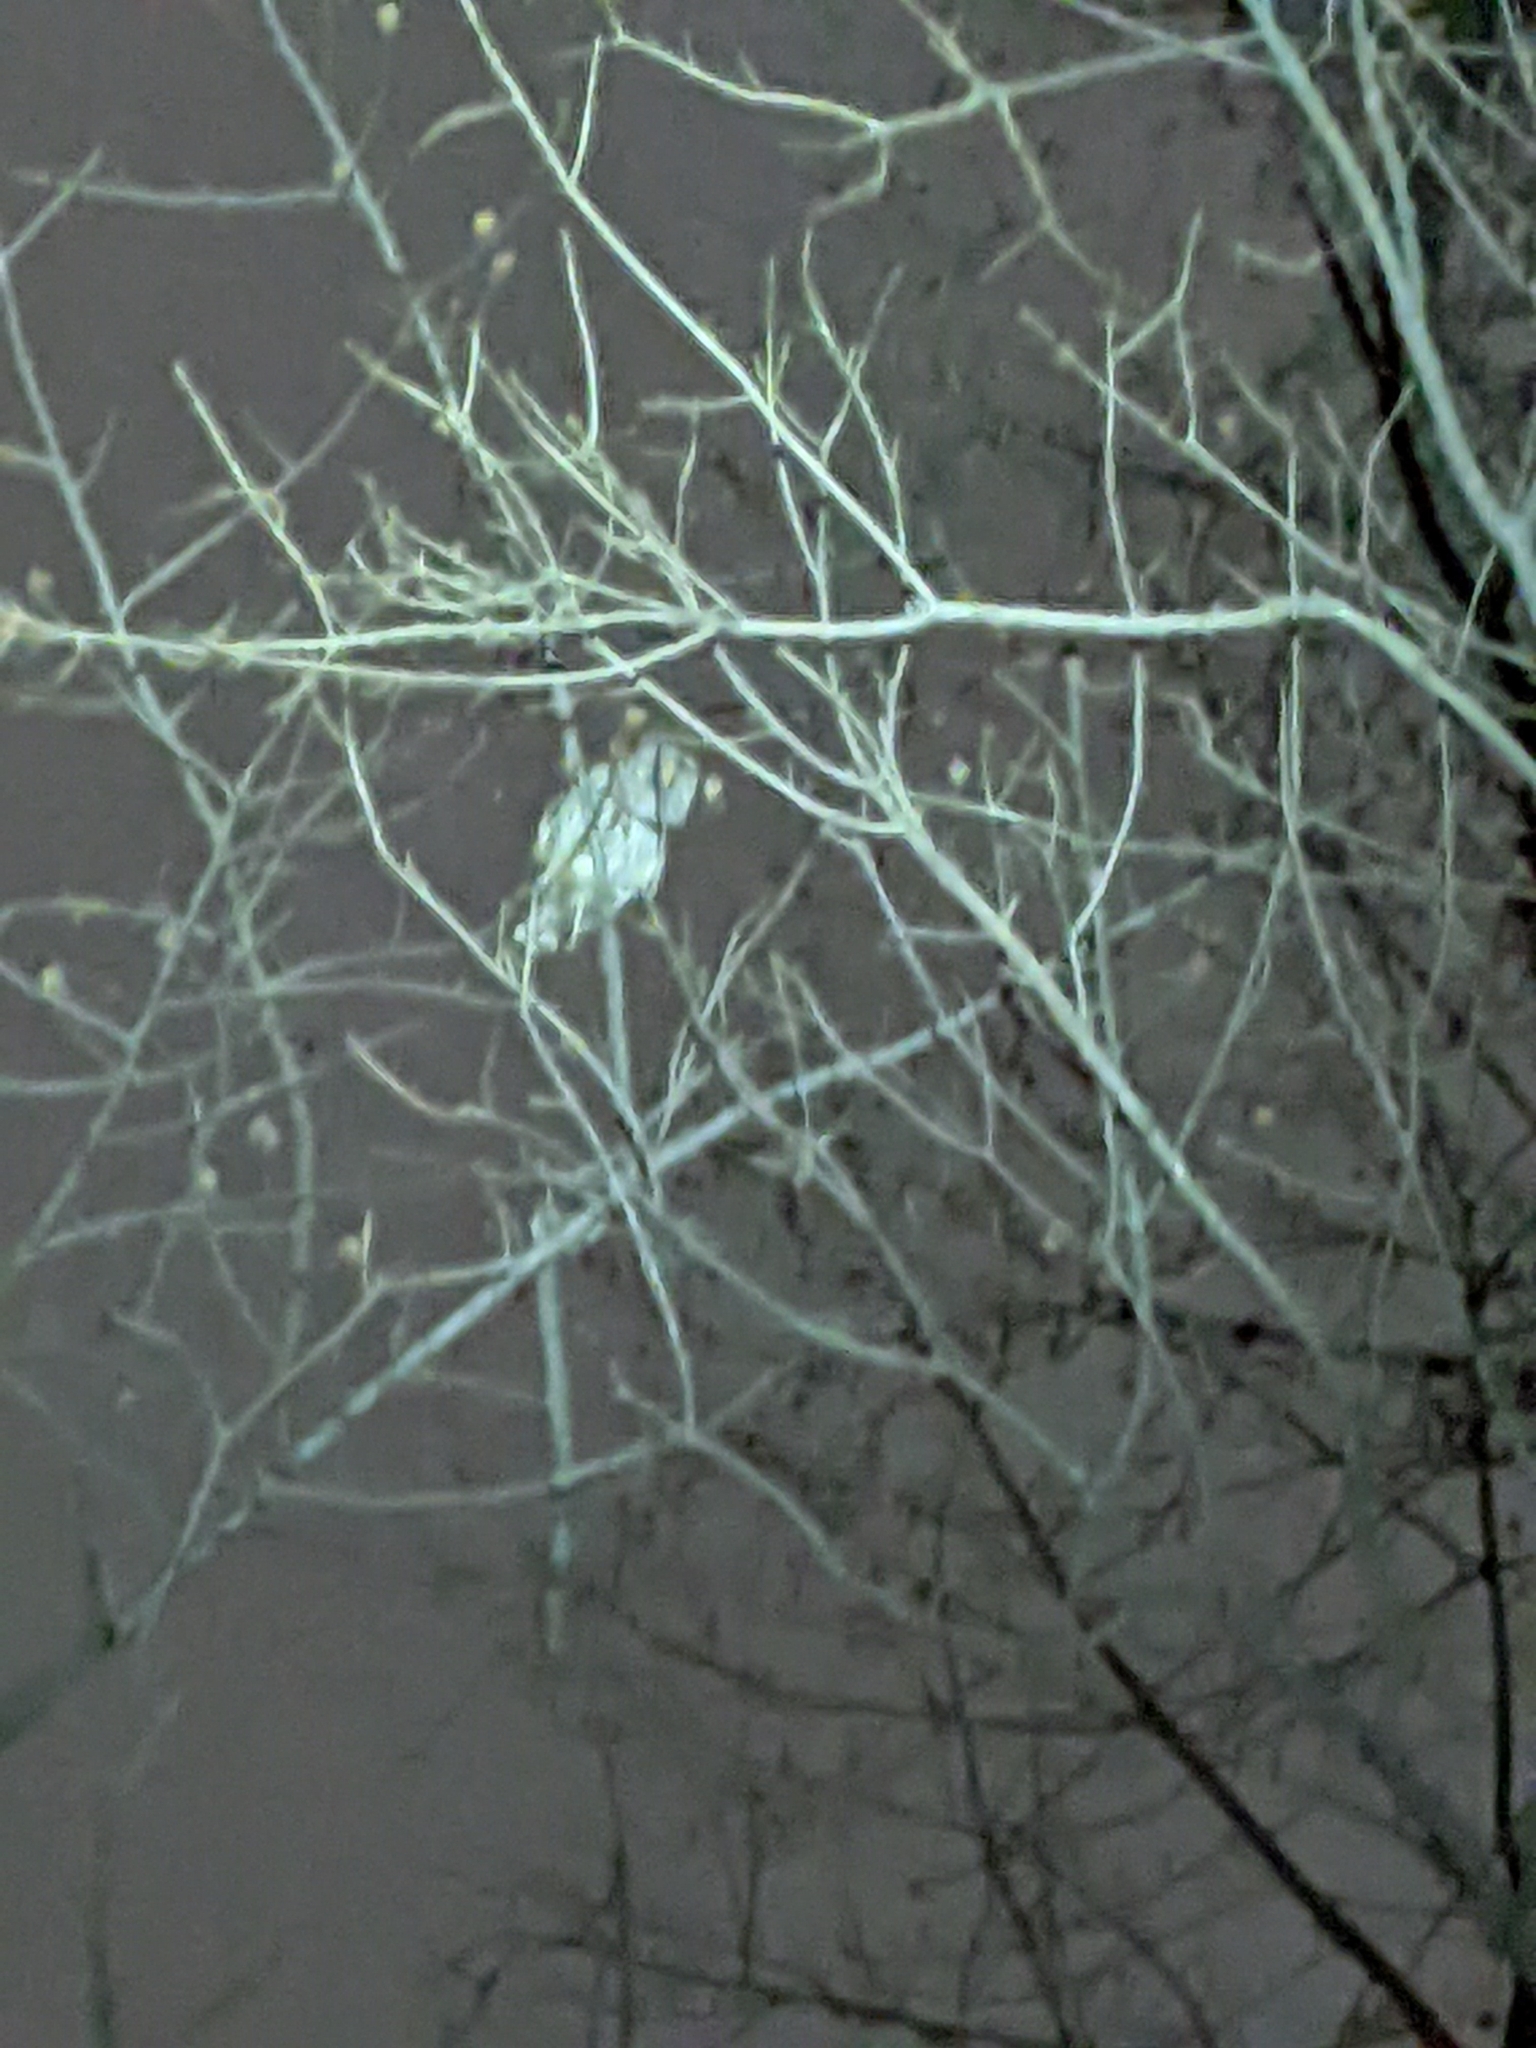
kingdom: Animalia
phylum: Chordata
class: Aves
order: Strigiformes
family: Strigidae
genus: Strix
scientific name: Strix varia
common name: Barred owl
